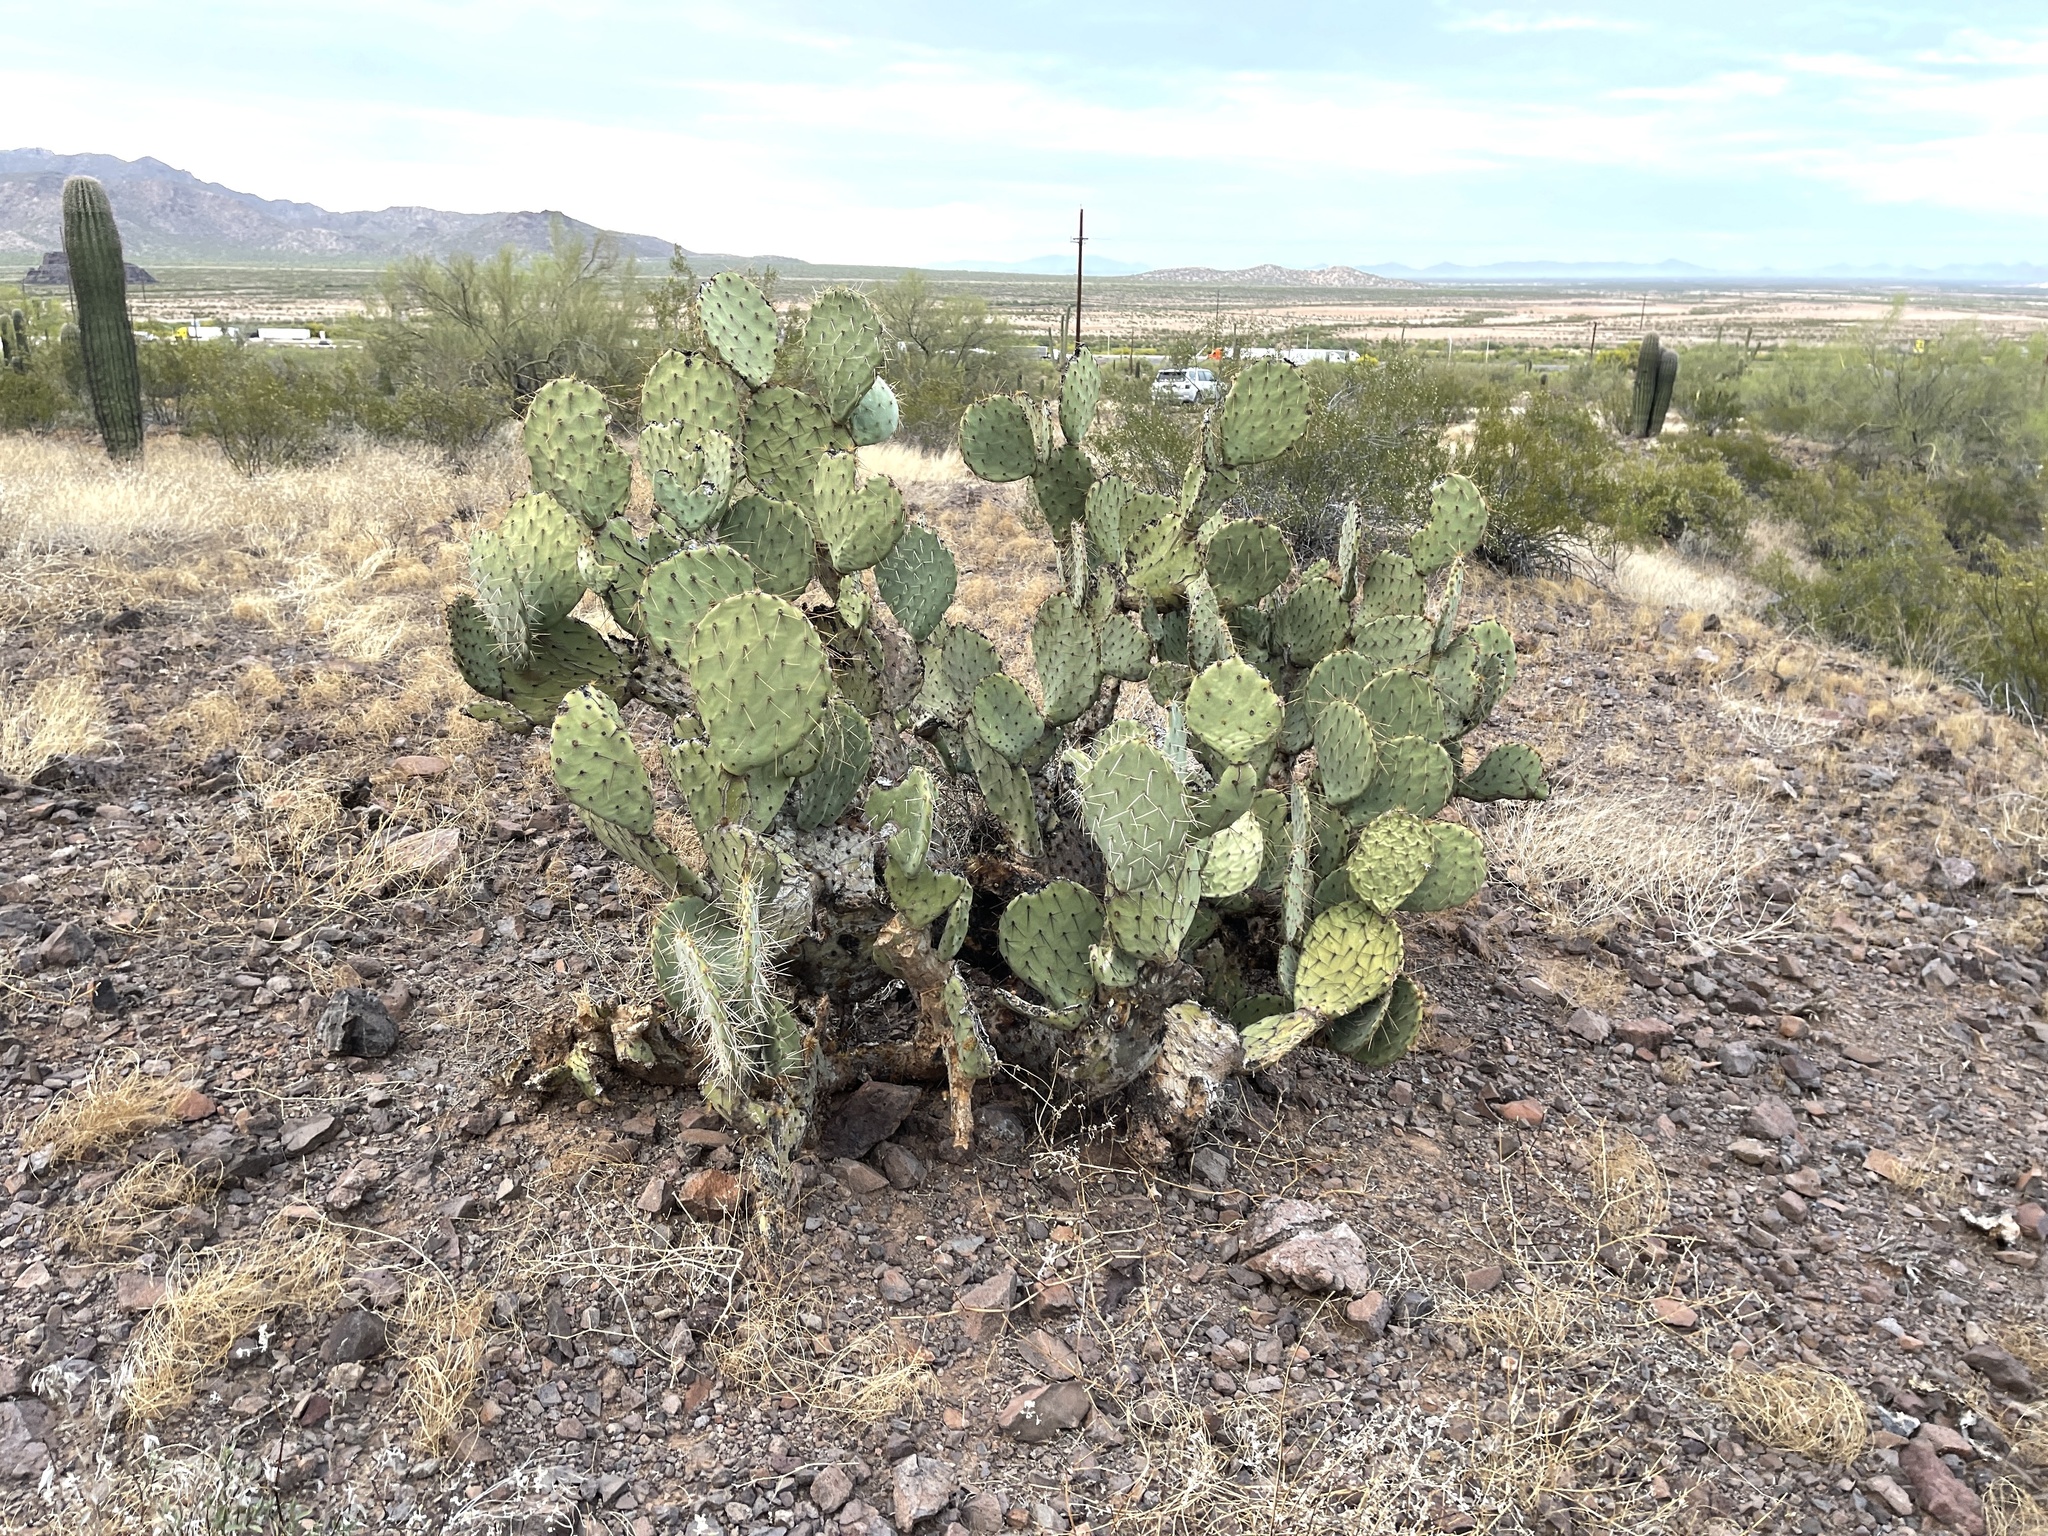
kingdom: Plantae
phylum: Tracheophyta
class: Magnoliopsida
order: Caryophyllales
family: Cactaceae
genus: Opuntia
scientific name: Opuntia engelmannii
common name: Cactus-apple
